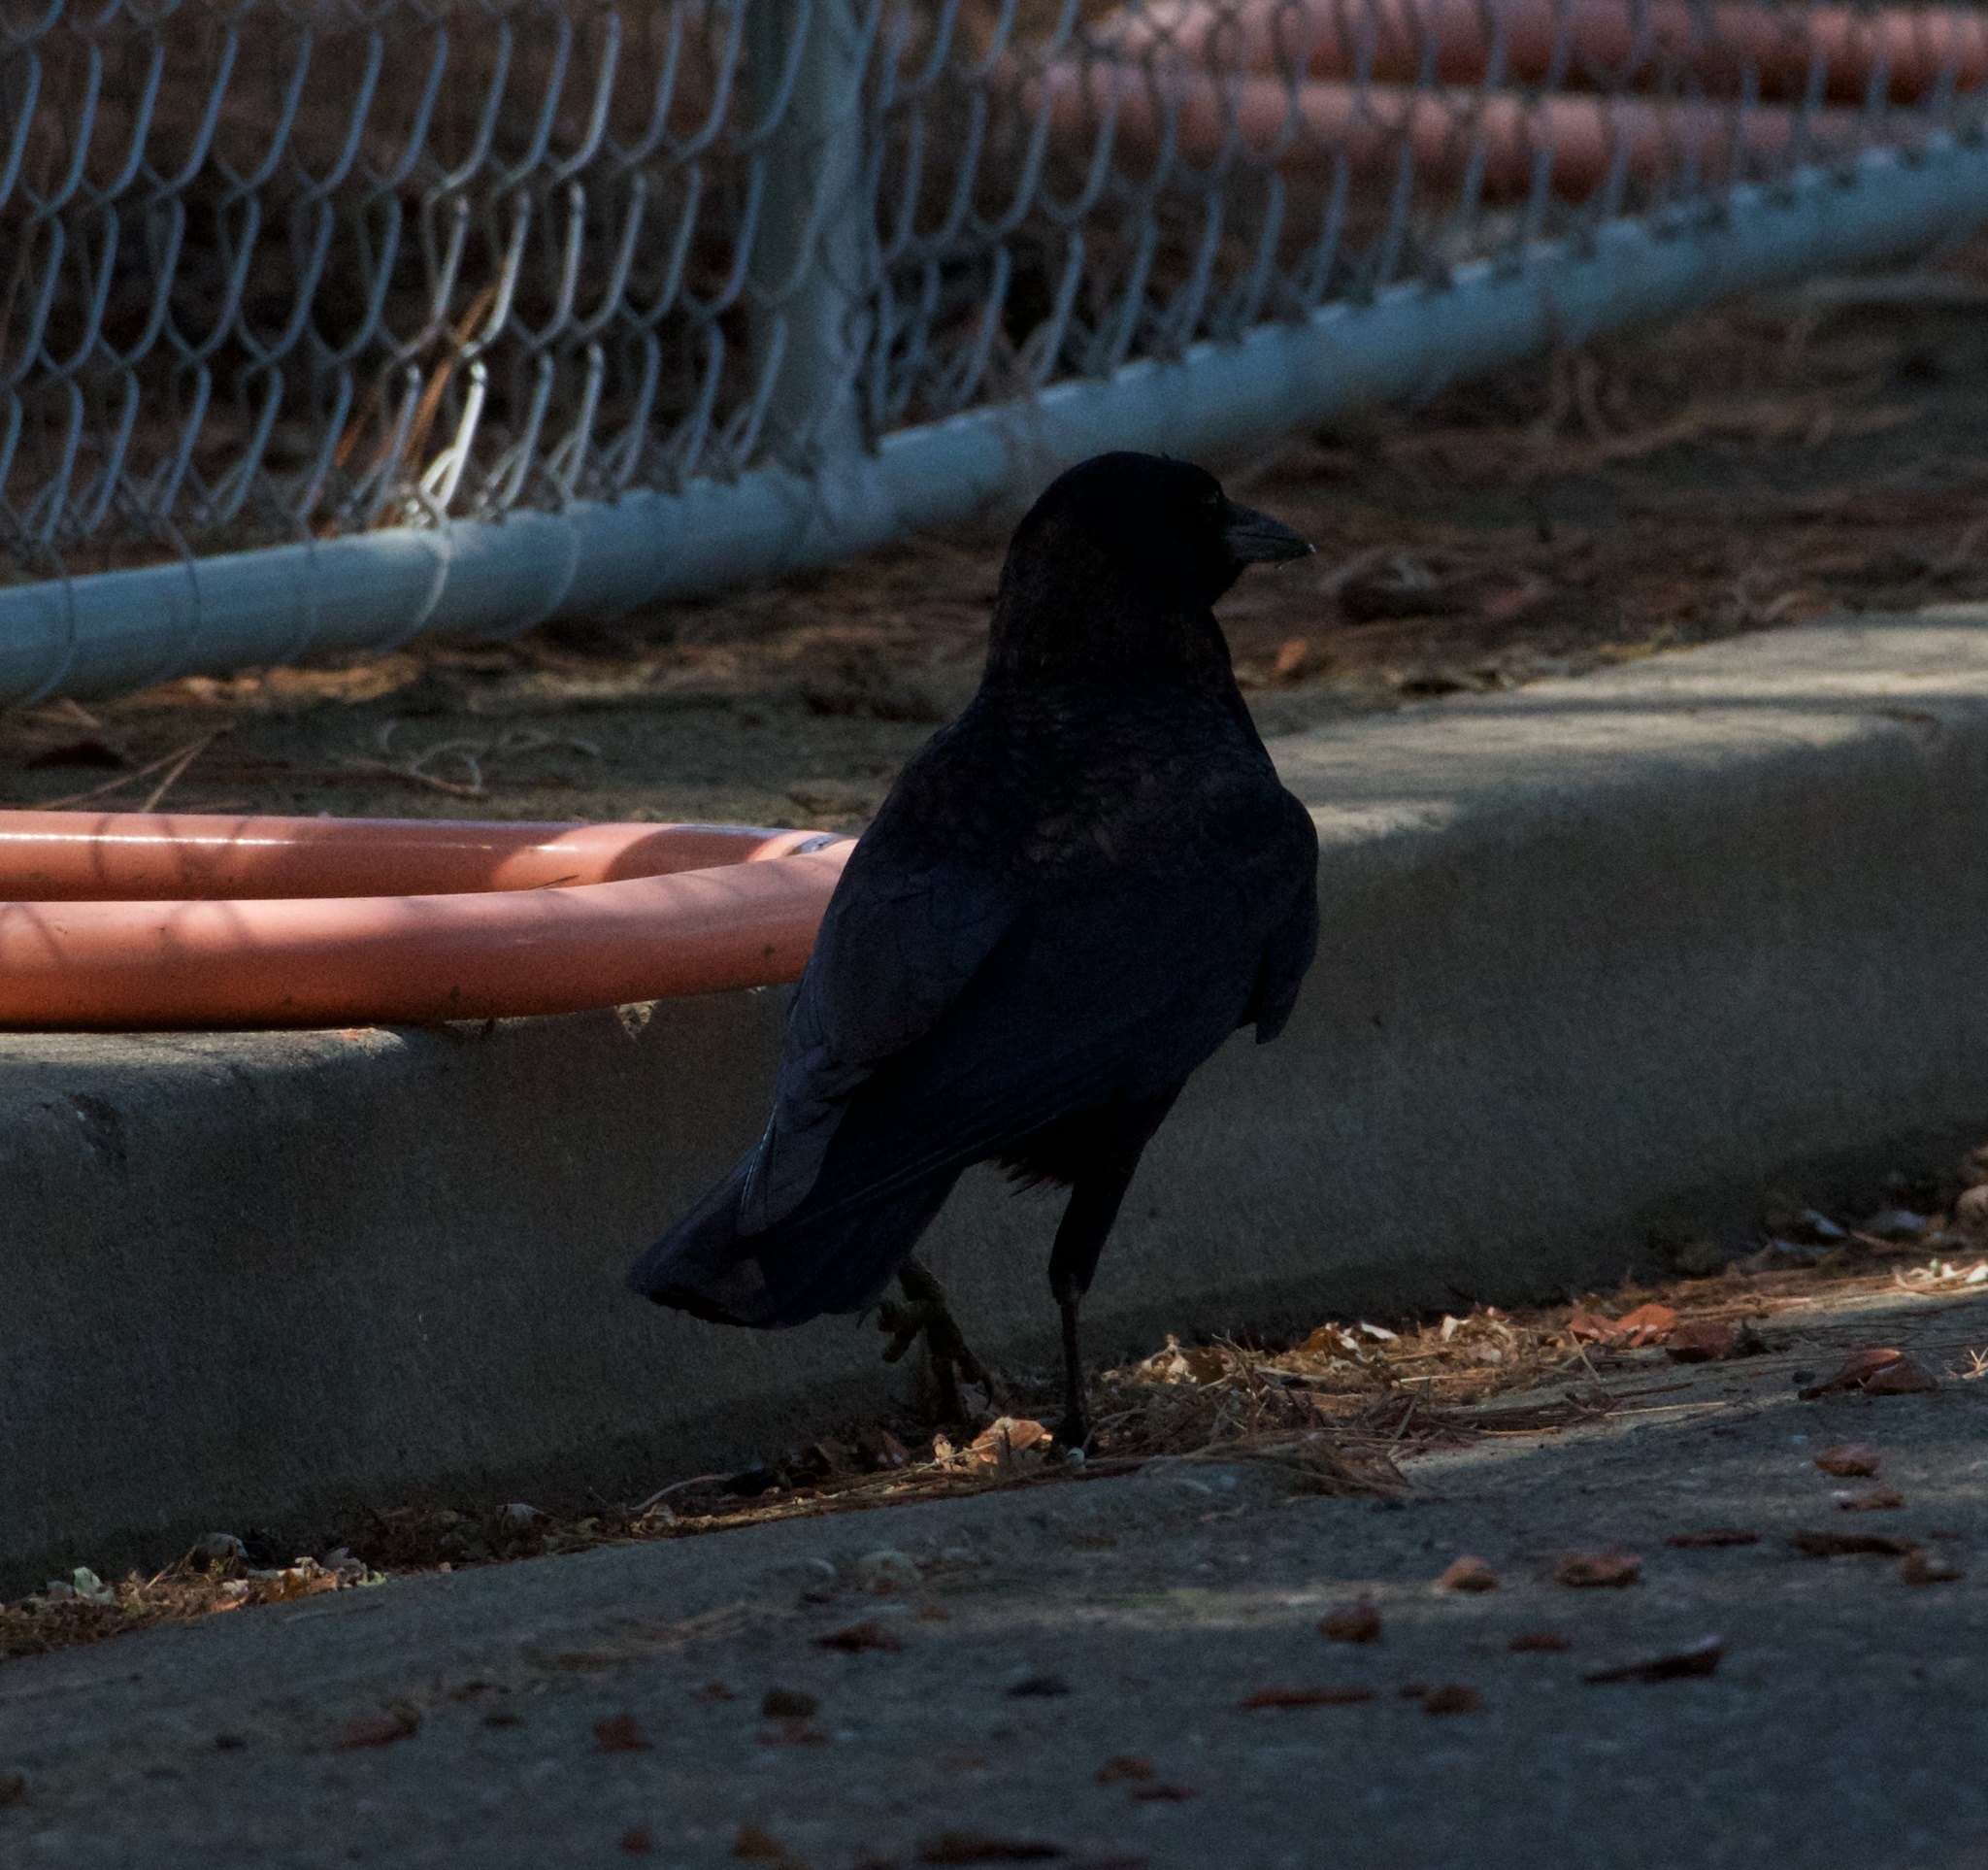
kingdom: Animalia
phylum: Chordata
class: Aves
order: Passeriformes
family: Corvidae
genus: Corvus
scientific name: Corvus brachyrhynchos
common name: American crow
